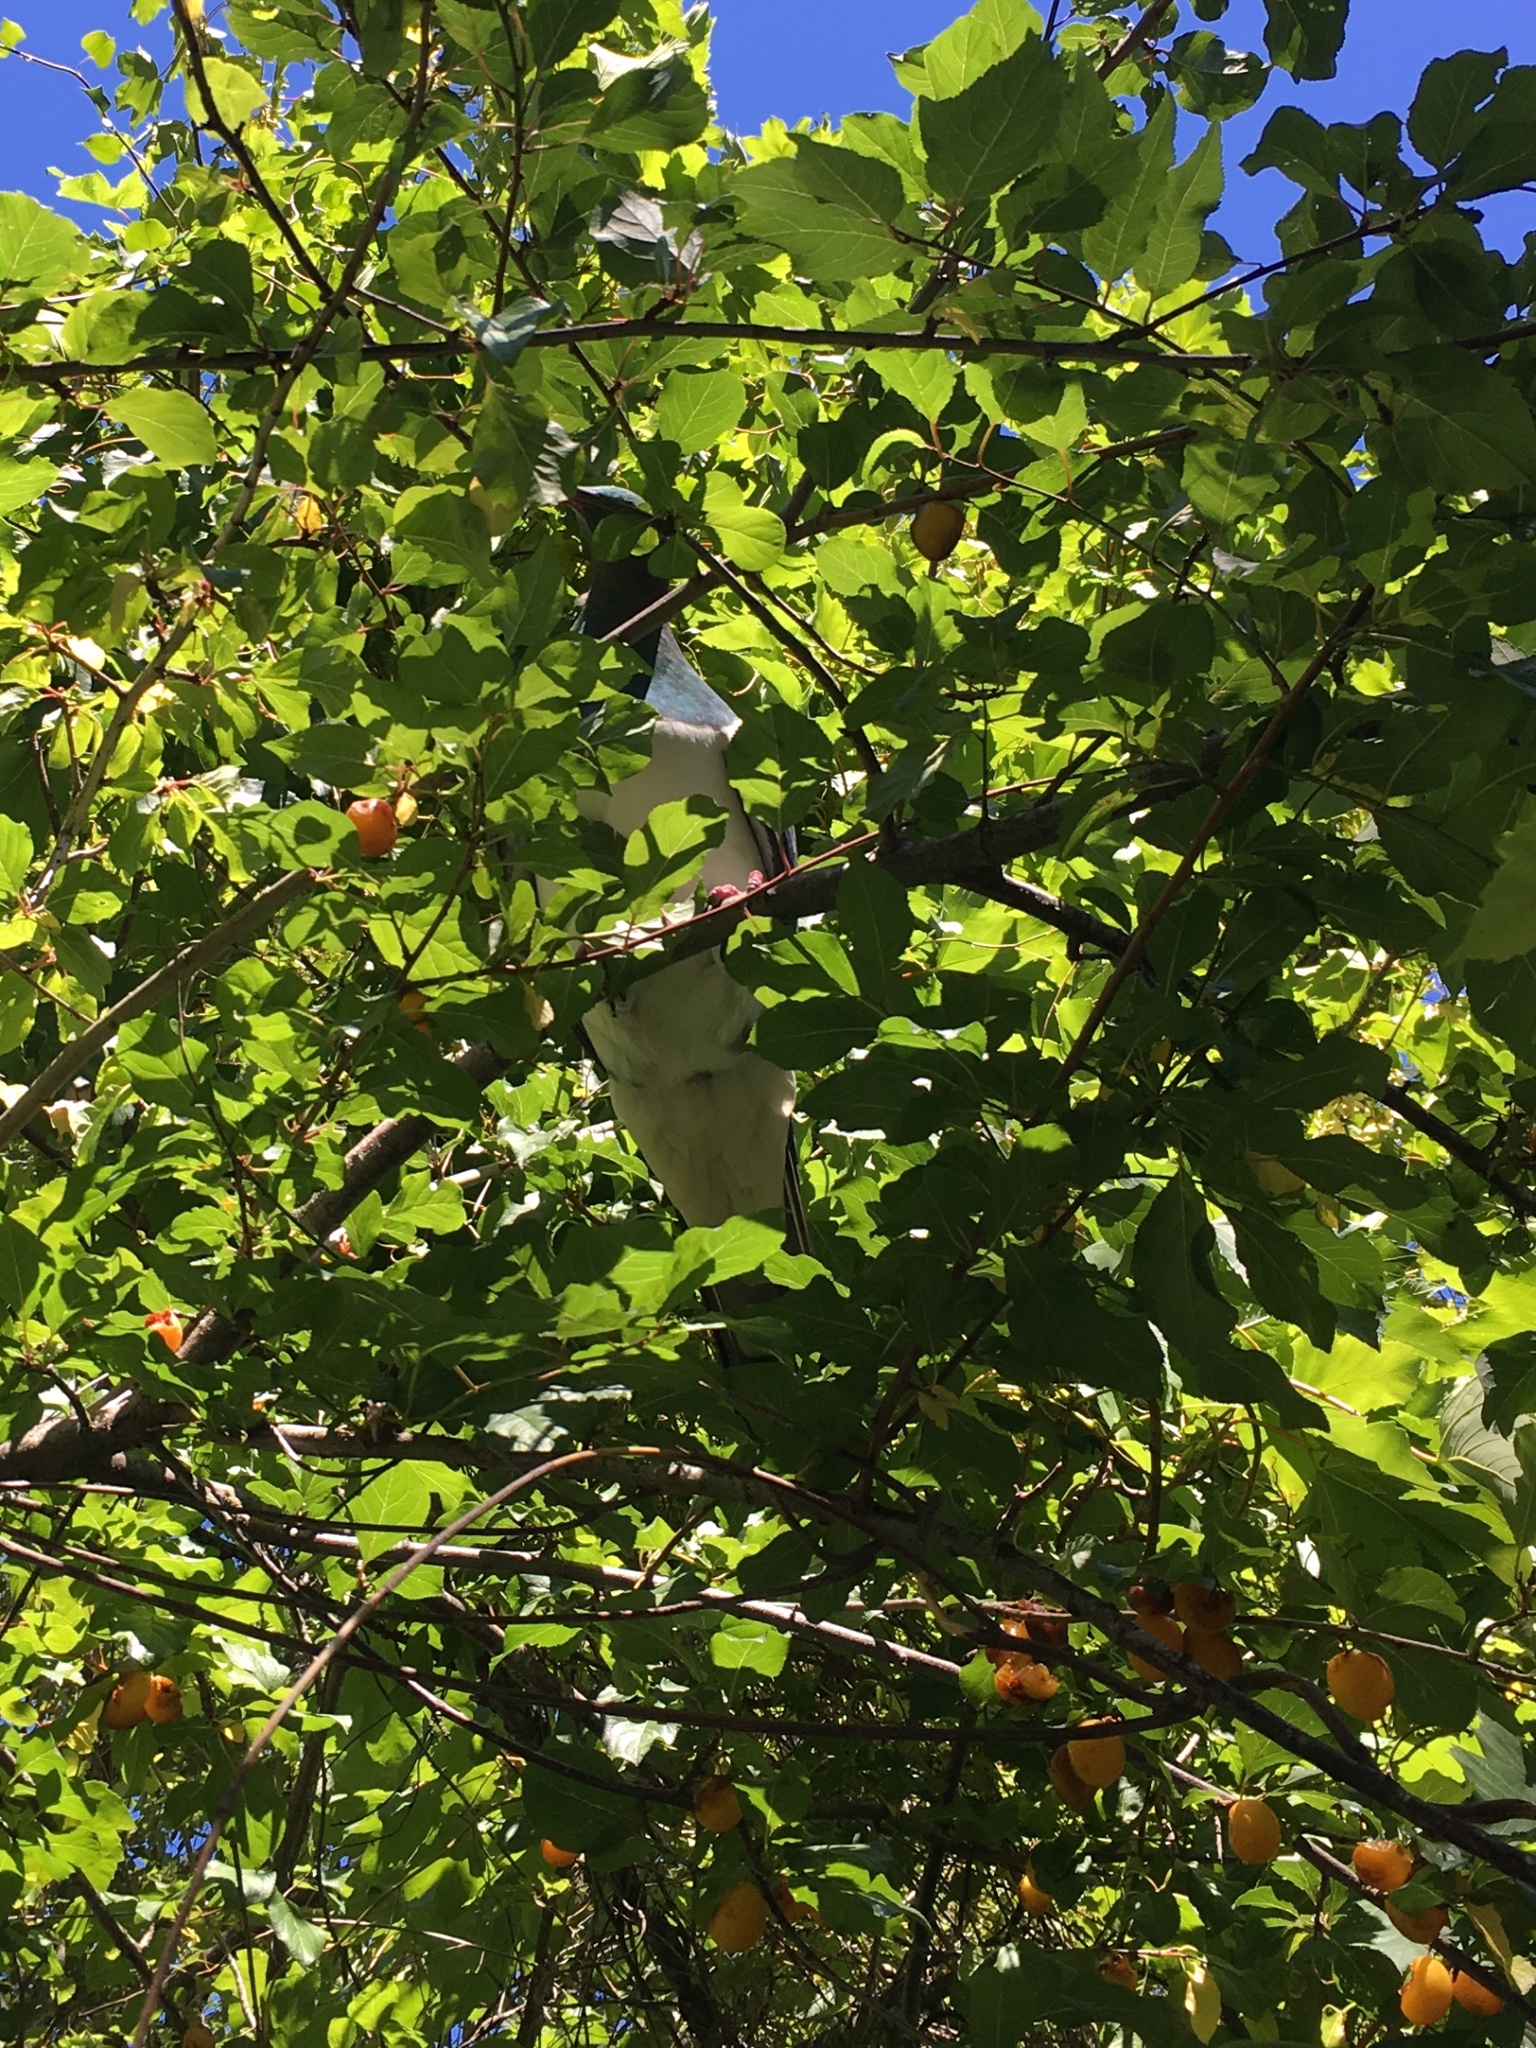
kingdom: Animalia
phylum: Chordata
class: Aves
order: Columbiformes
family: Columbidae
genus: Hemiphaga
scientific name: Hemiphaga novaeseelandiae
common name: New zealand pigeon
